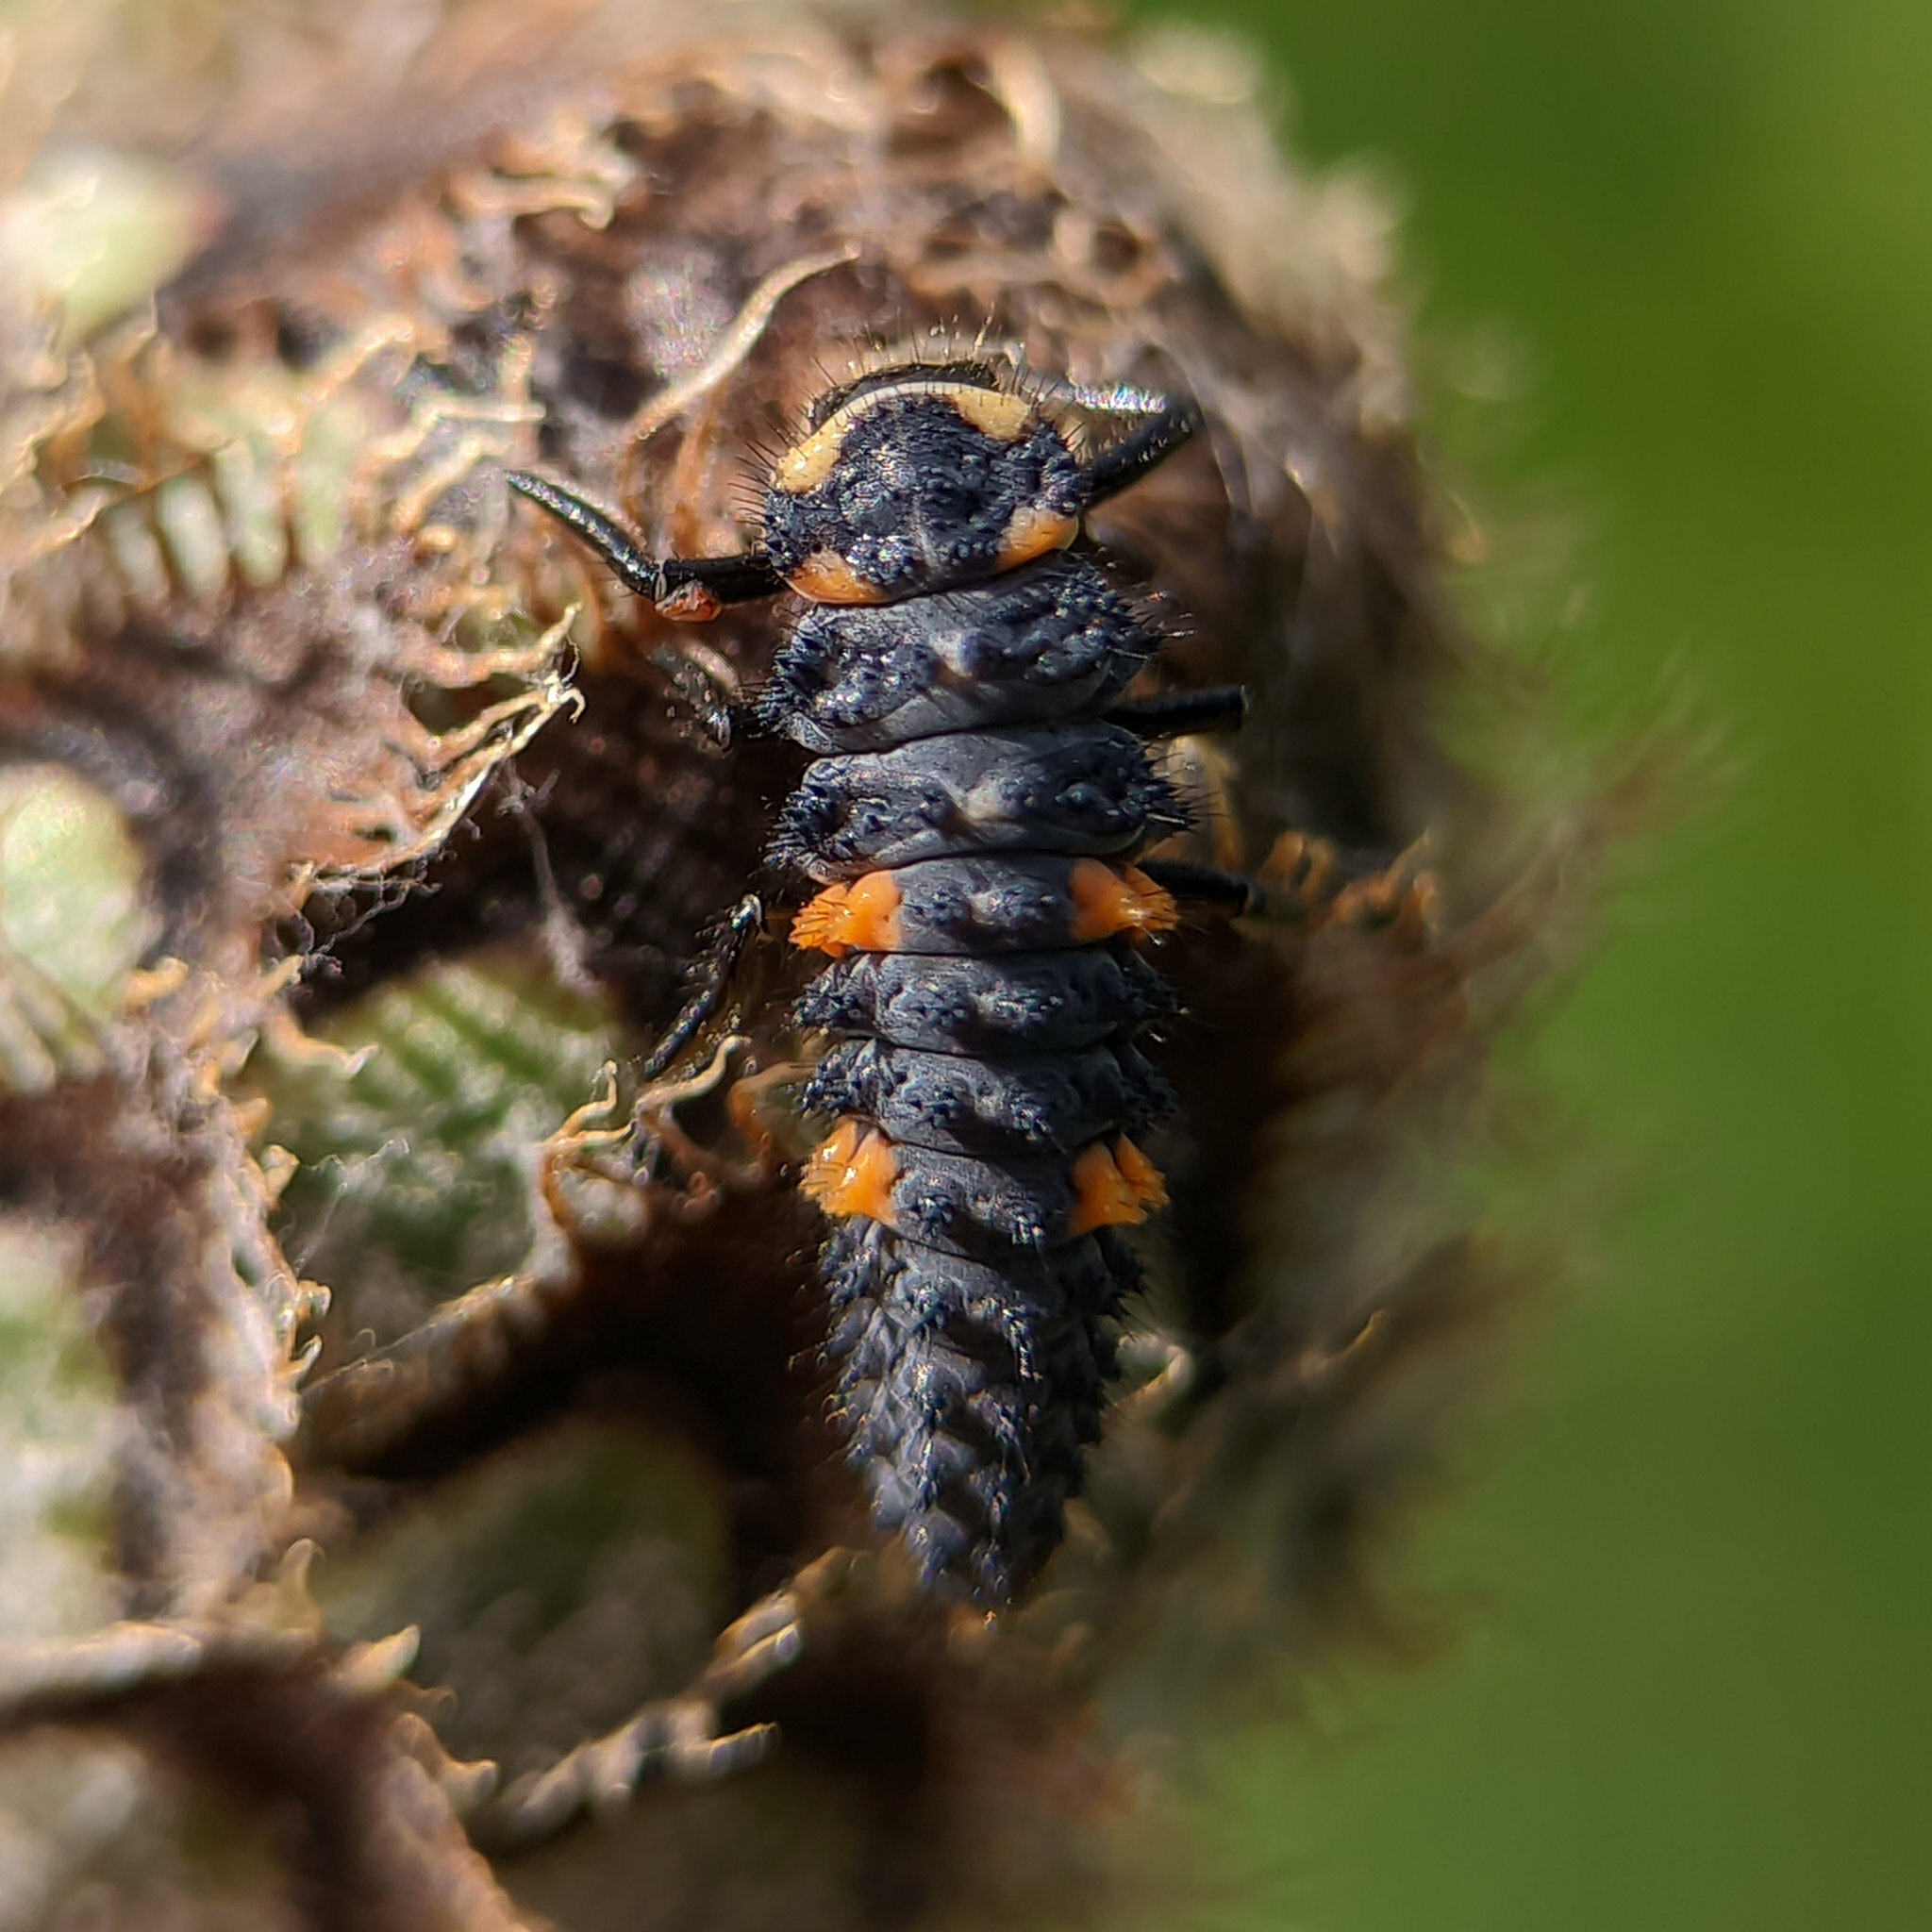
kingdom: Animalia
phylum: Arthropoda
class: Insecta
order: Coleoptera
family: Coccinellidae
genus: Coccinella
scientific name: Coccinella septempunctata
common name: Sevenspotted lady beetle
